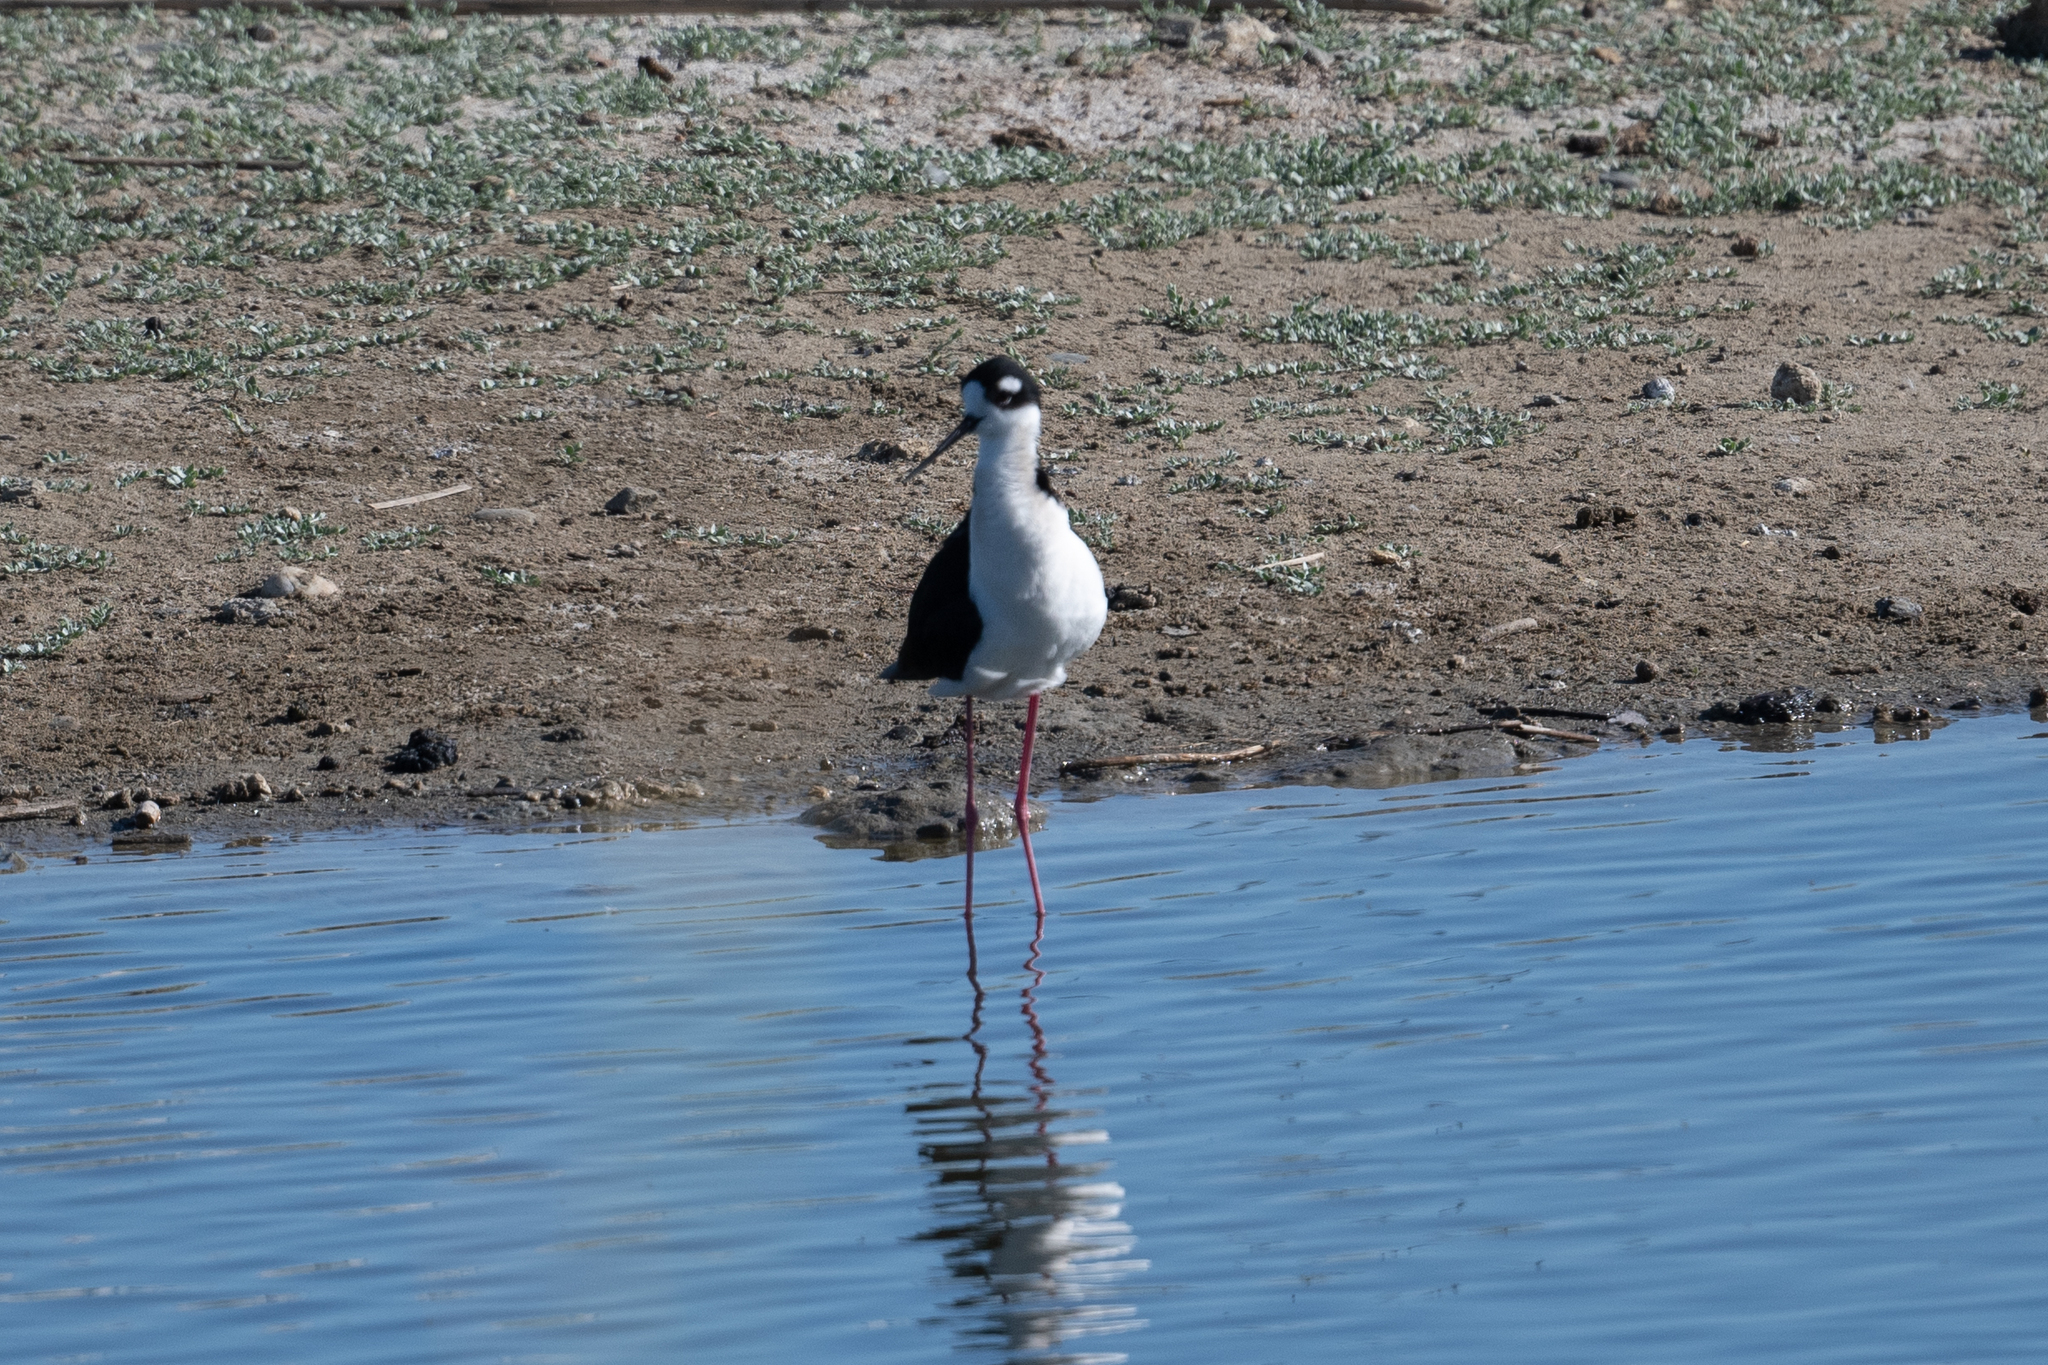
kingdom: Animalia
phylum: Chordata
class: Aves
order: Charadriiformes
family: Recurvirostridae
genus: Himantopus
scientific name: Himantopus mexicanus
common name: Black-necked stilt
